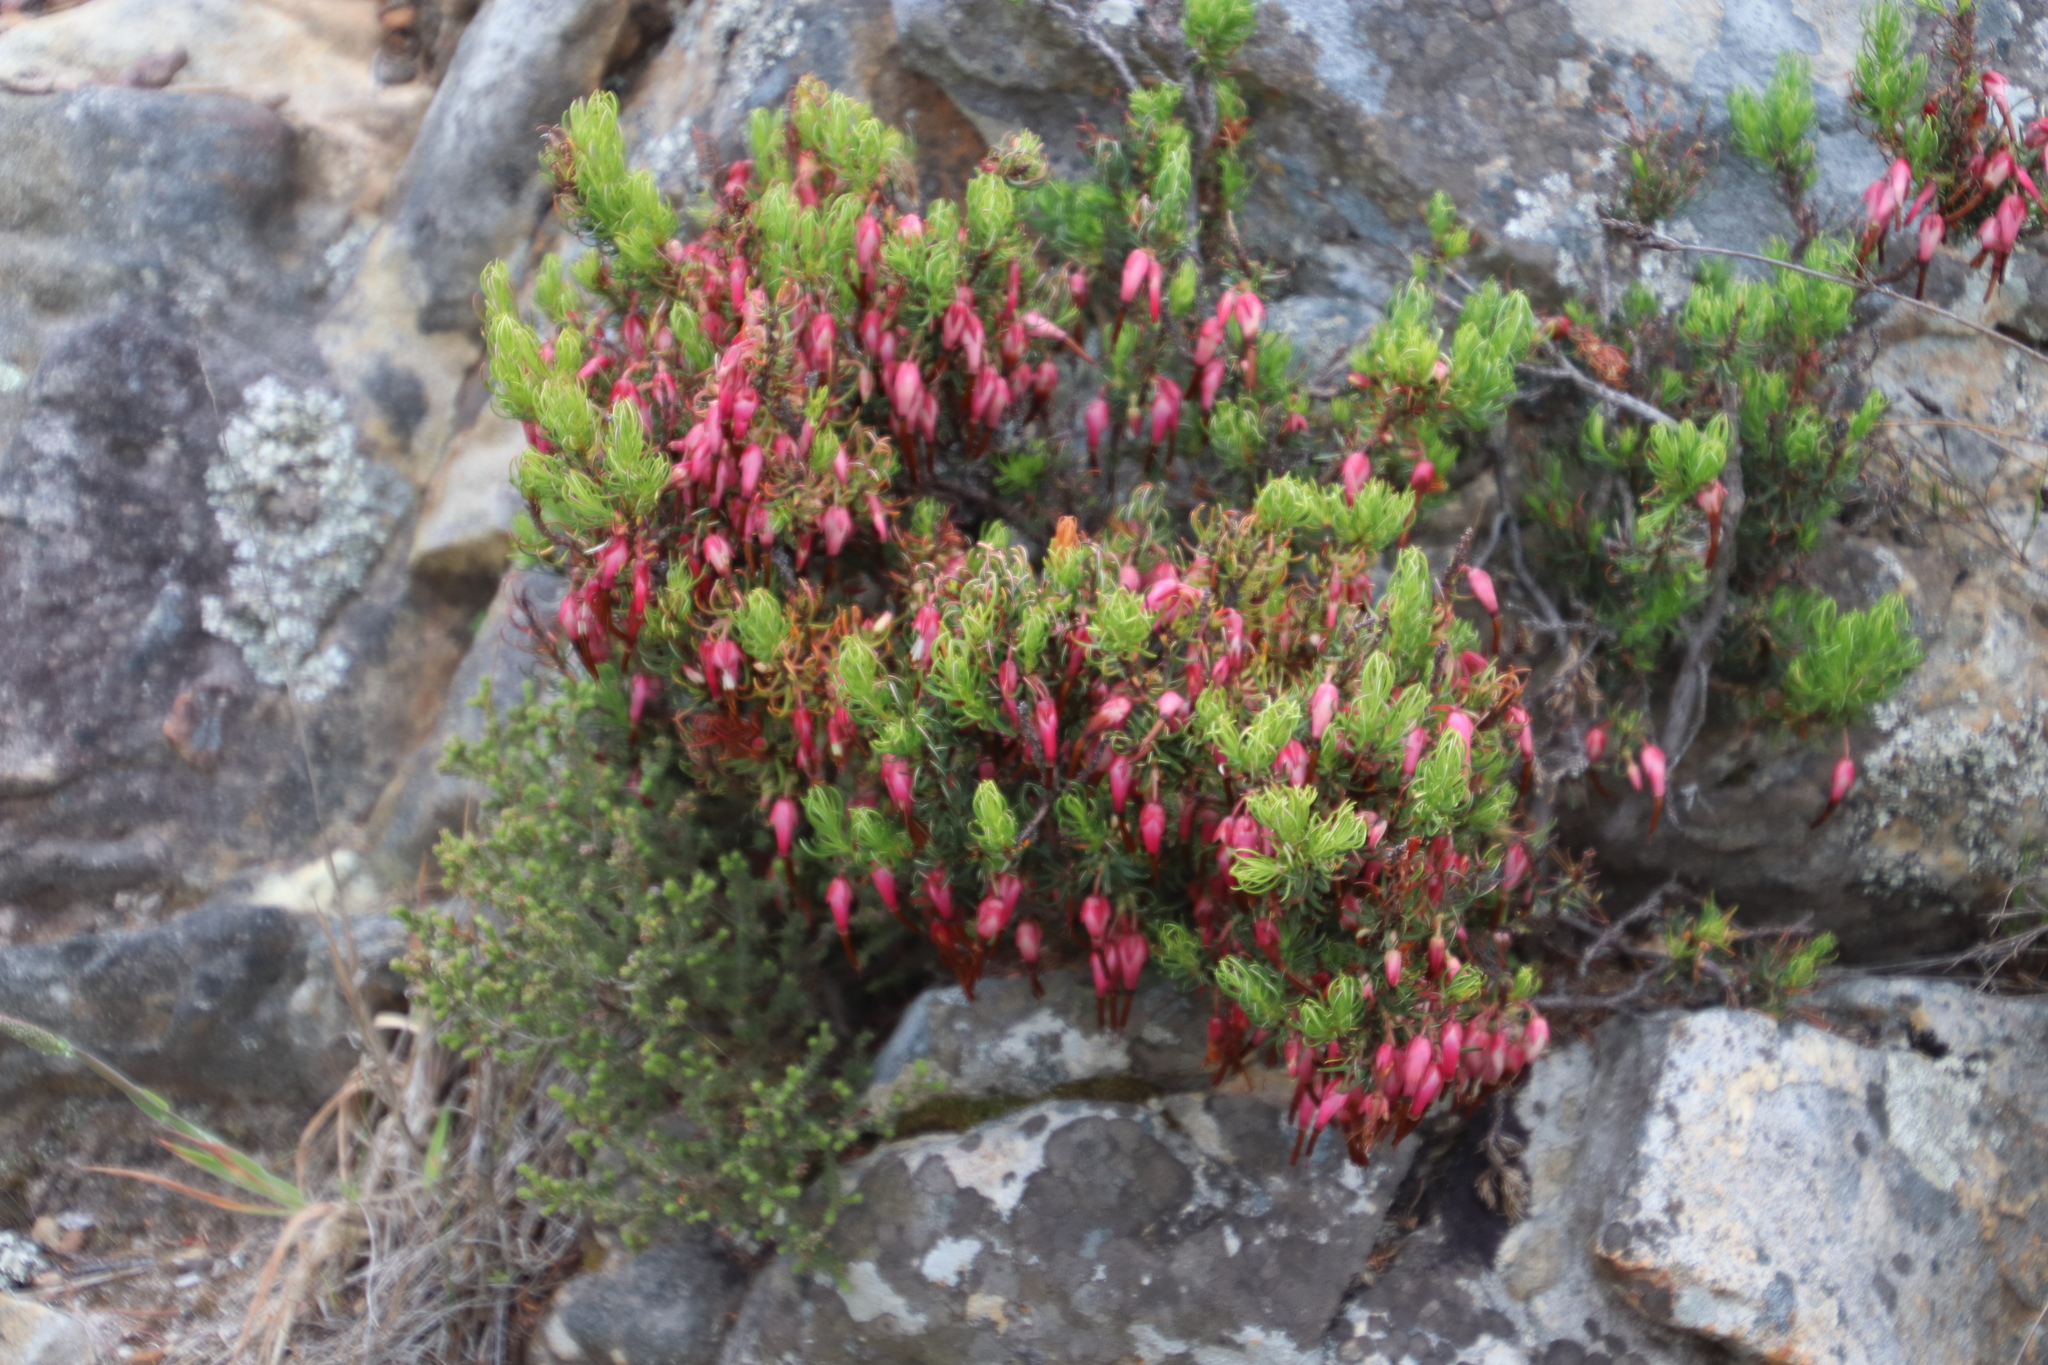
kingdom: Plantae
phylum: Tracheophyta
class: Magnoliopsida
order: Ericales
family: Ericaceae
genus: Erica
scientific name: Erica plukenetii
